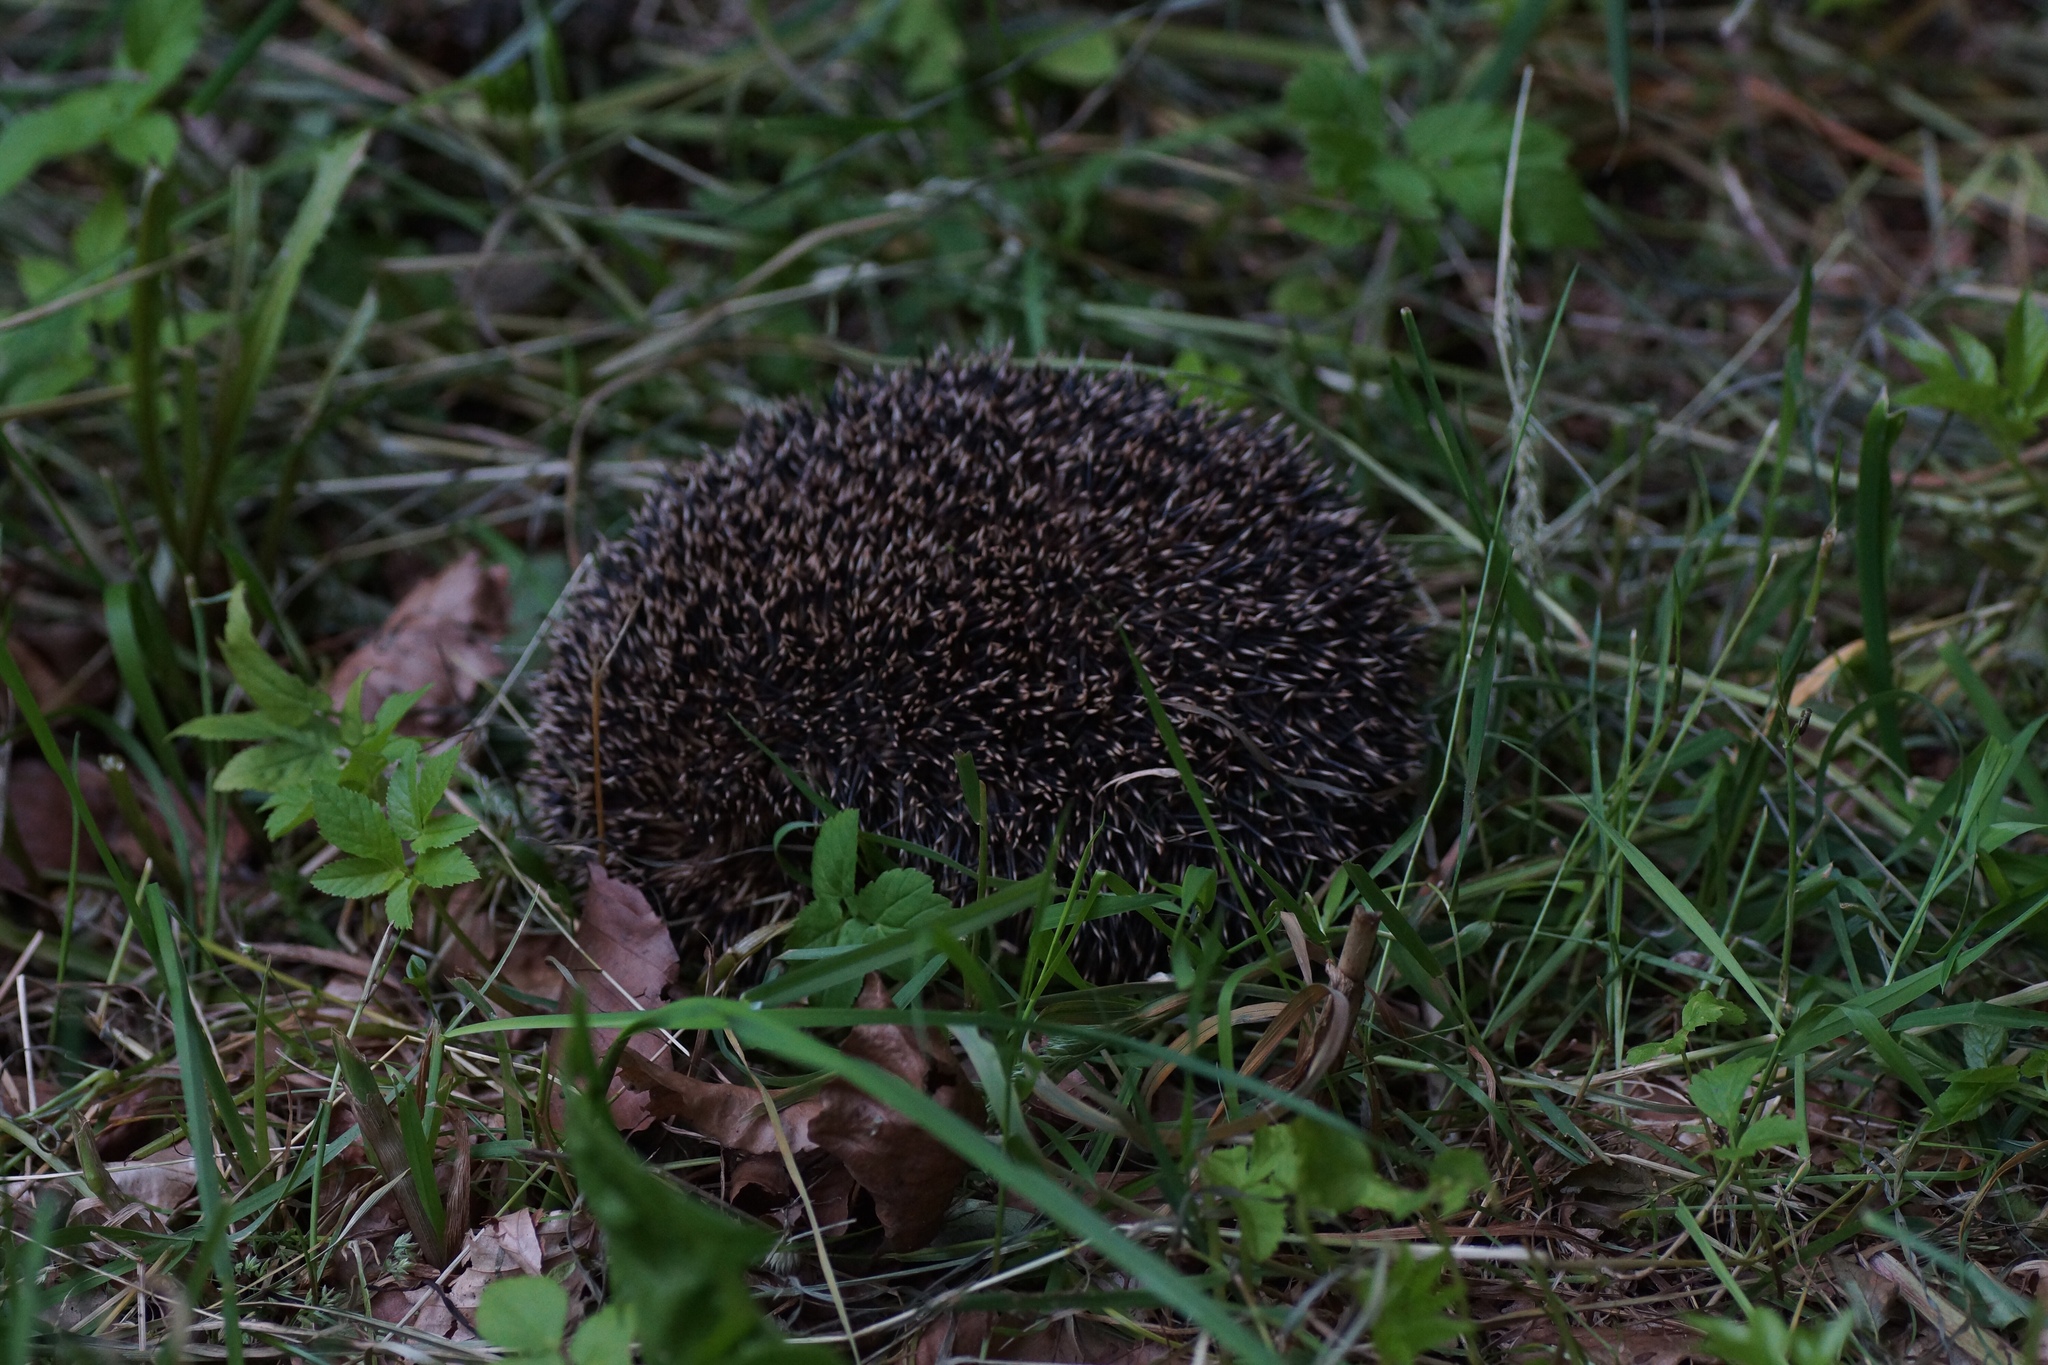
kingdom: Animalia
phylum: Chordata
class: Mammalia
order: Erinaceomorpha
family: Erinaceidae
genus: Erinaceus
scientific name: Erinaceus europaeus
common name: West european hedgehog
